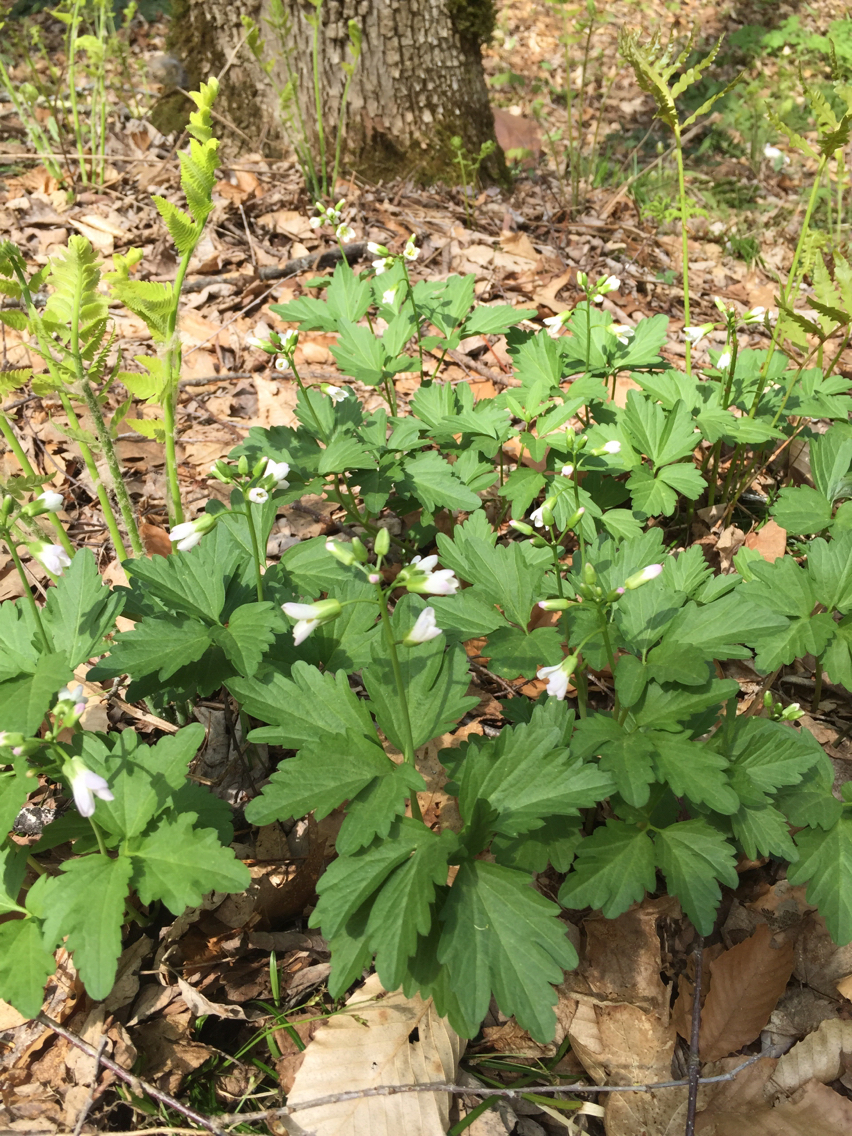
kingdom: Plantae
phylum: Tracheophyta
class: Magnoliopsida
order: Brassicales
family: Brassicaceae
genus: Cardamine
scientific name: Cardamine diphylla
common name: Broad-leaved toothwort
